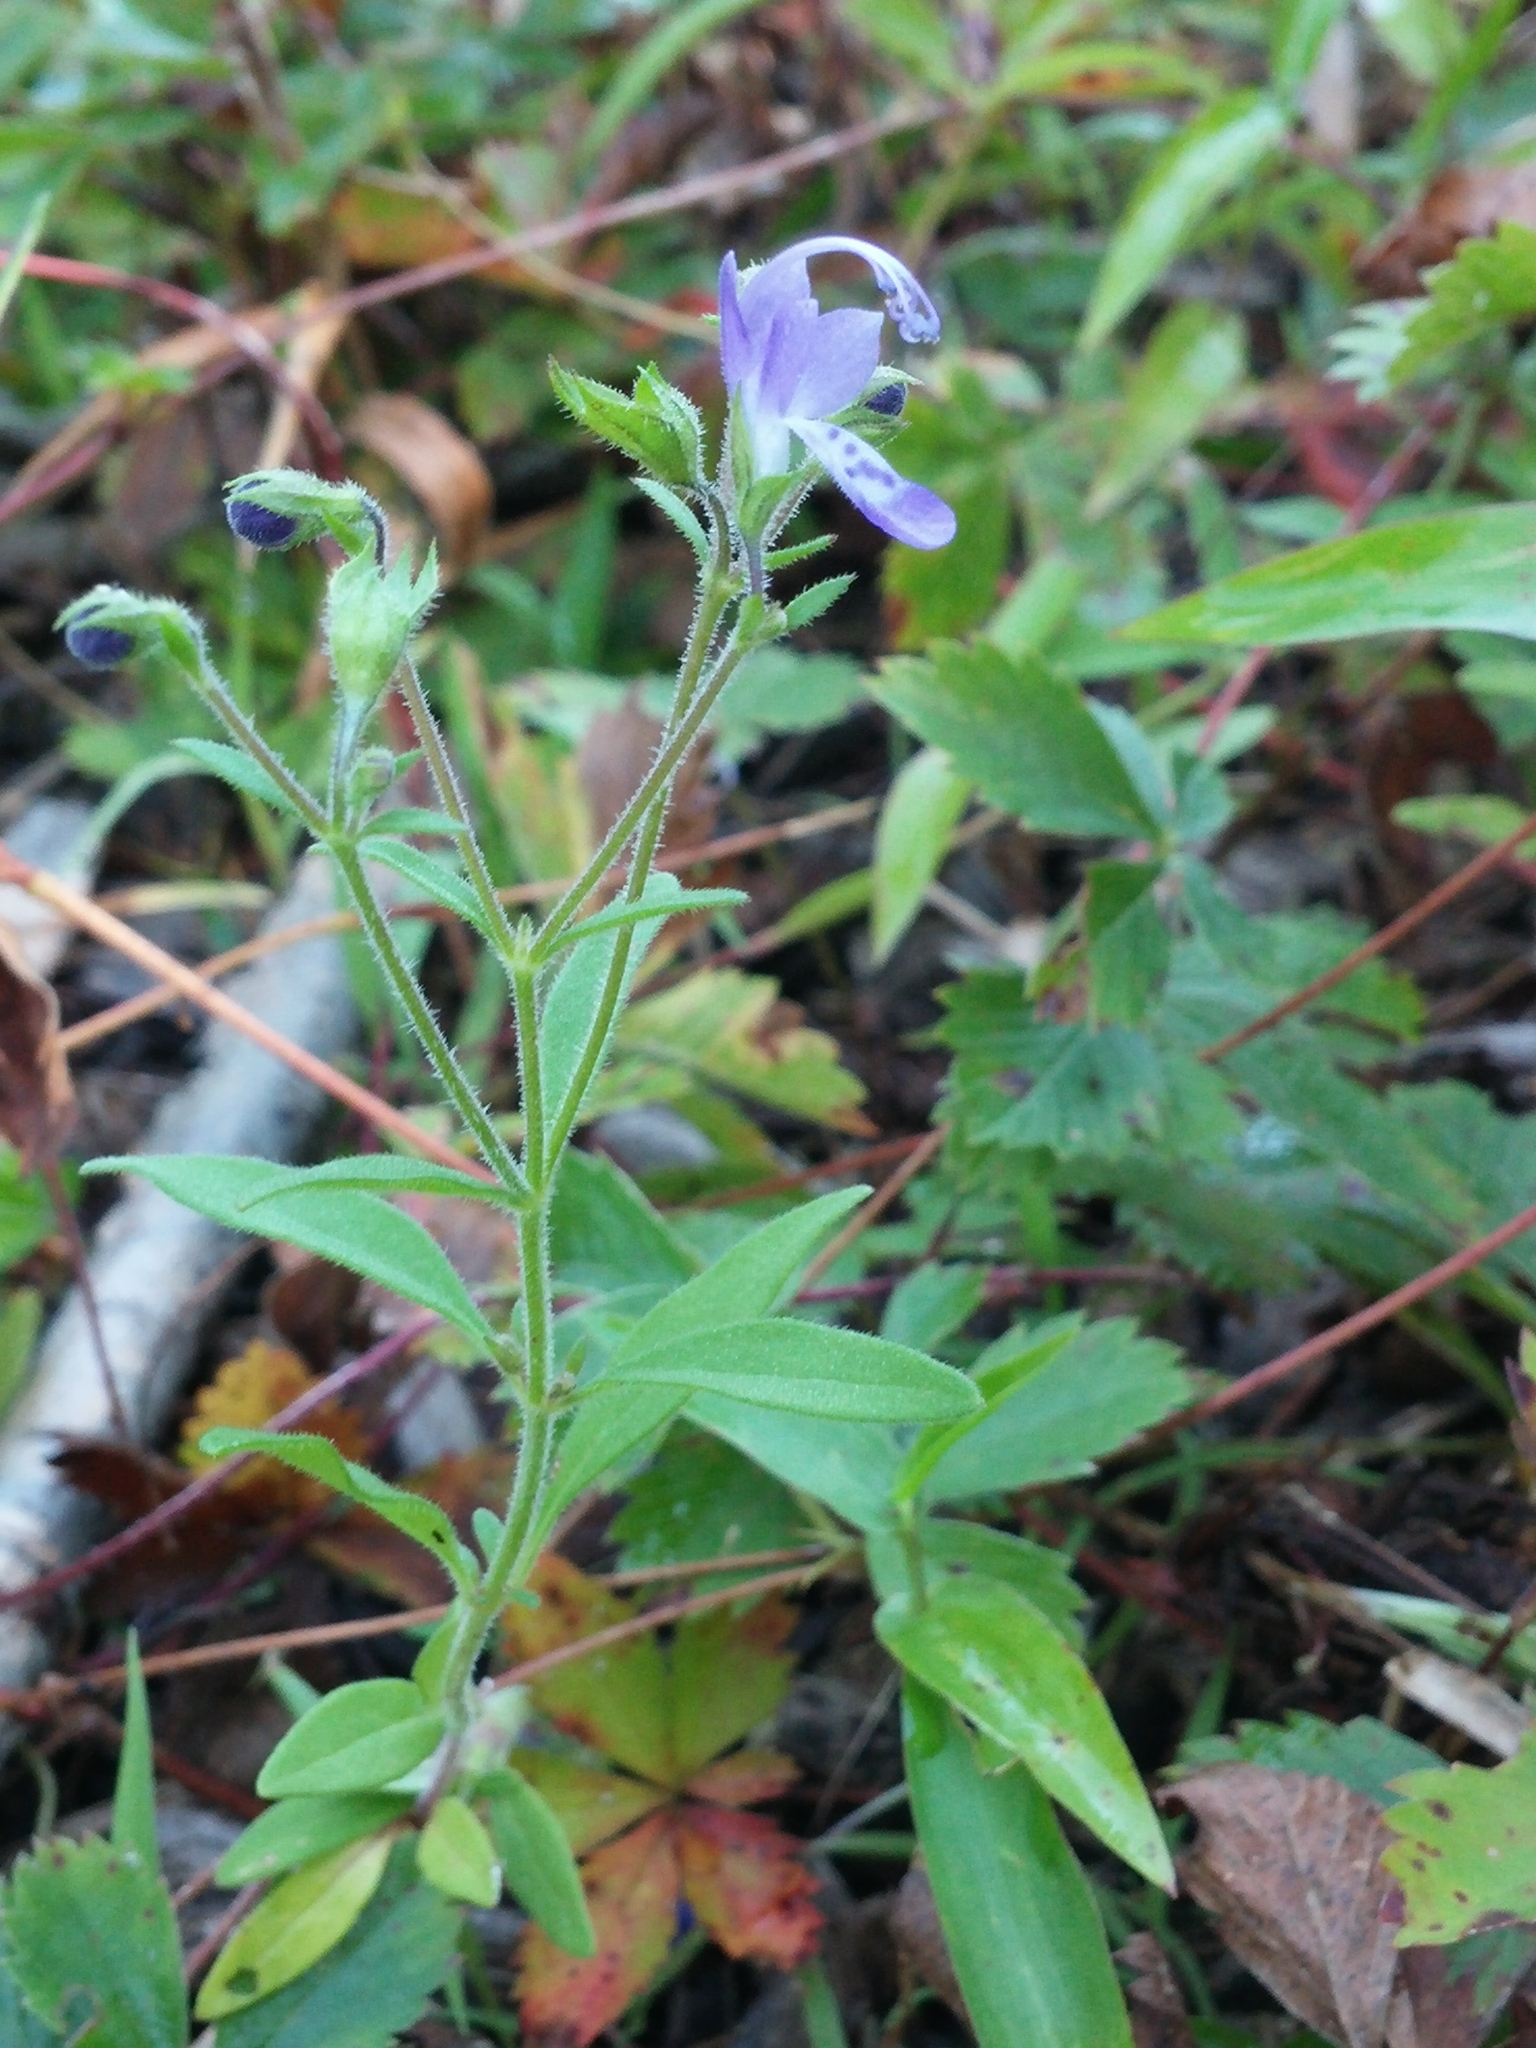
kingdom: Plantae
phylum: Tracheophyta
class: Magnoliopsida
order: Lamiales
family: Lamiaceae
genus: Trichostema
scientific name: Trichostema dichotomum
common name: Bastard pennyroyal
